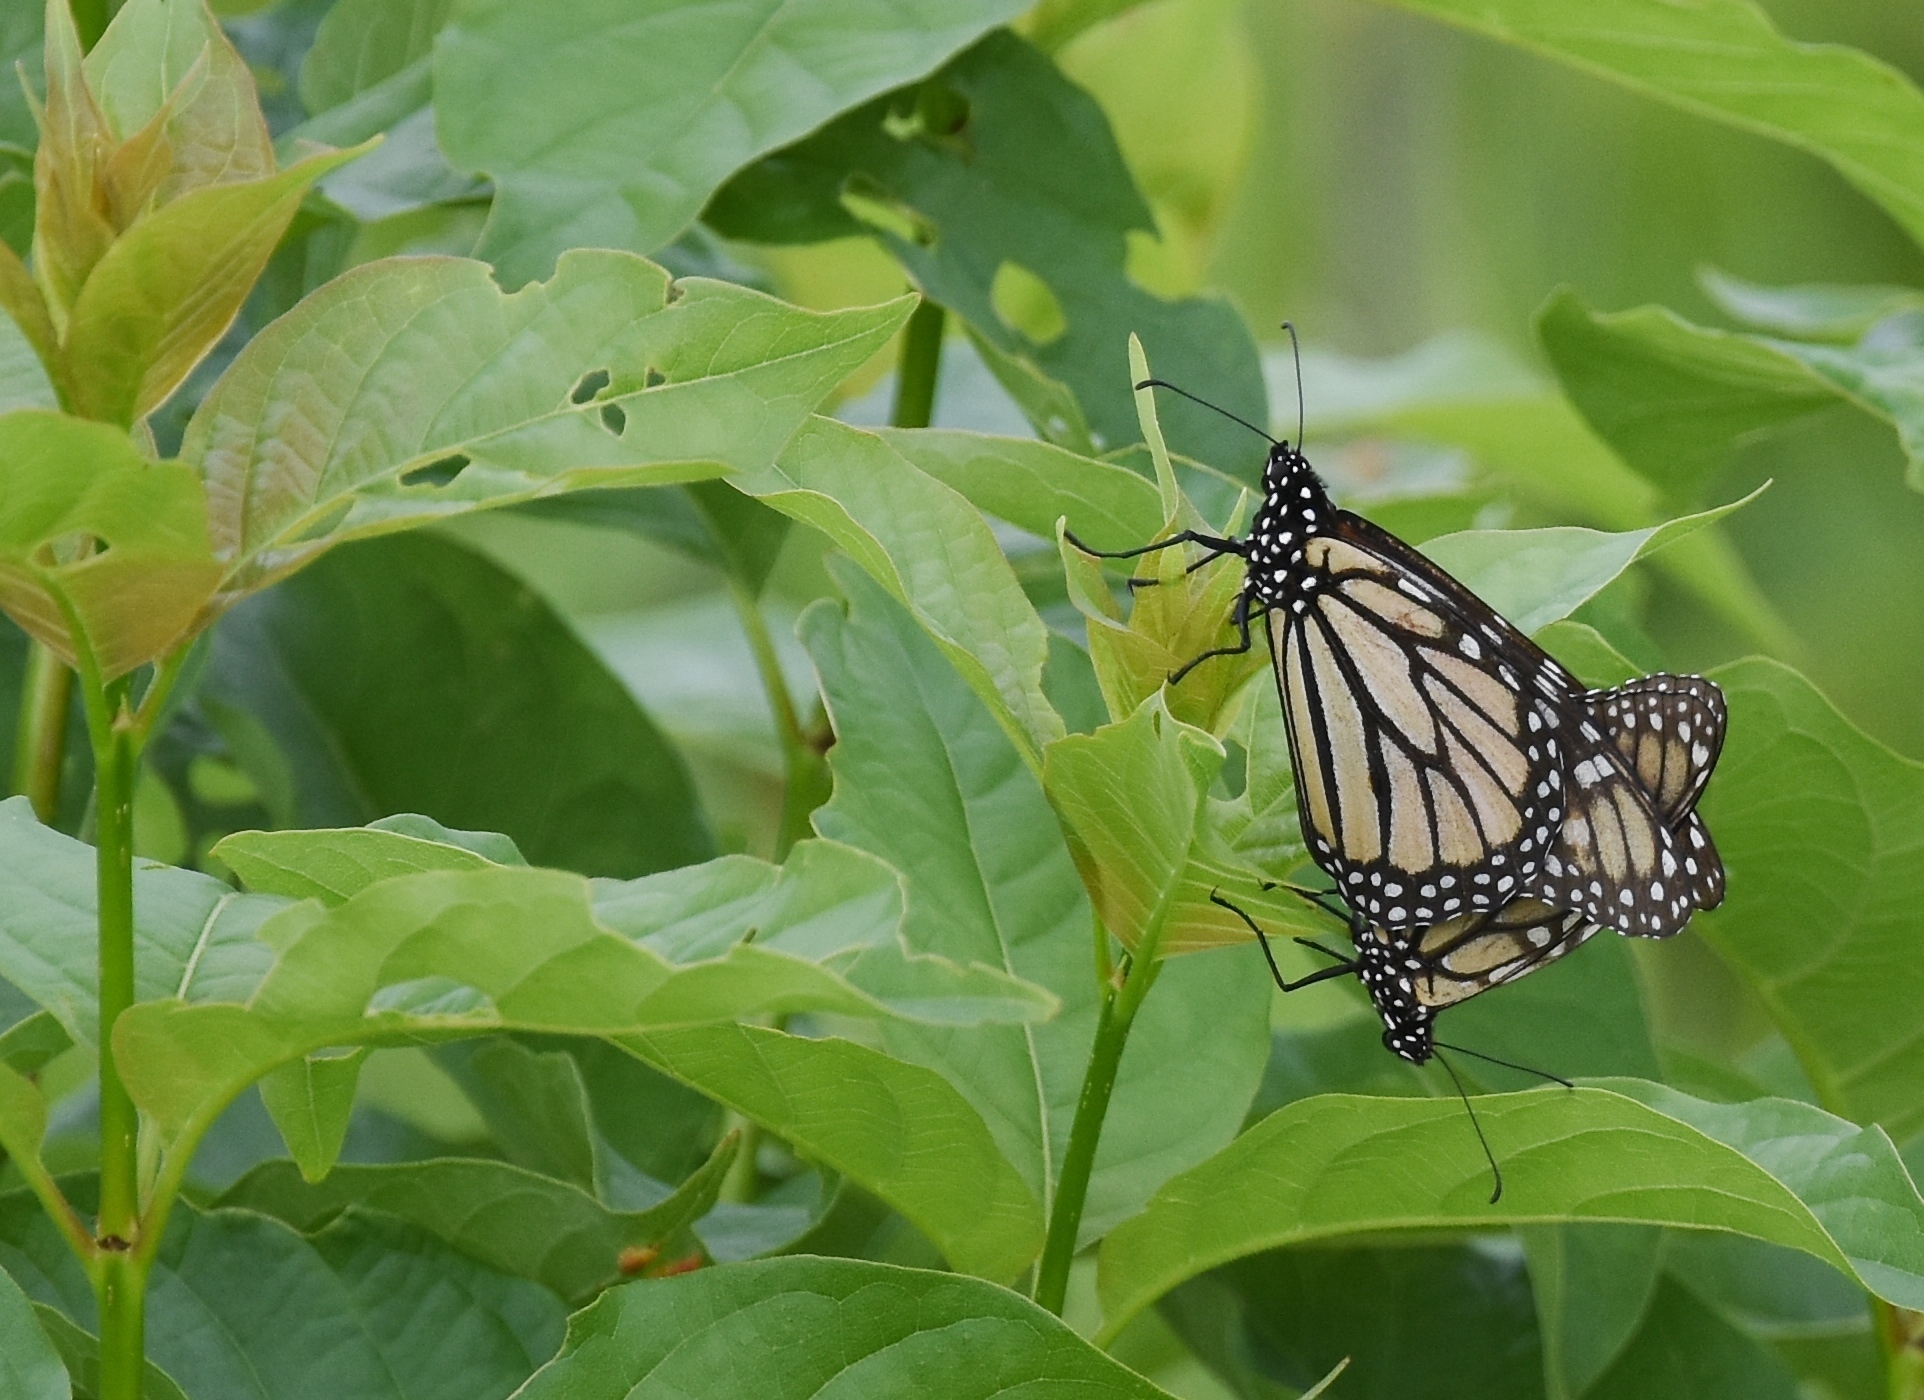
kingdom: Animalia
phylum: Arthropoda
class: Insecta
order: Lepidoptera
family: Nymphalidae
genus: Danaus
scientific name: Danaus plexippus
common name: Monarch
